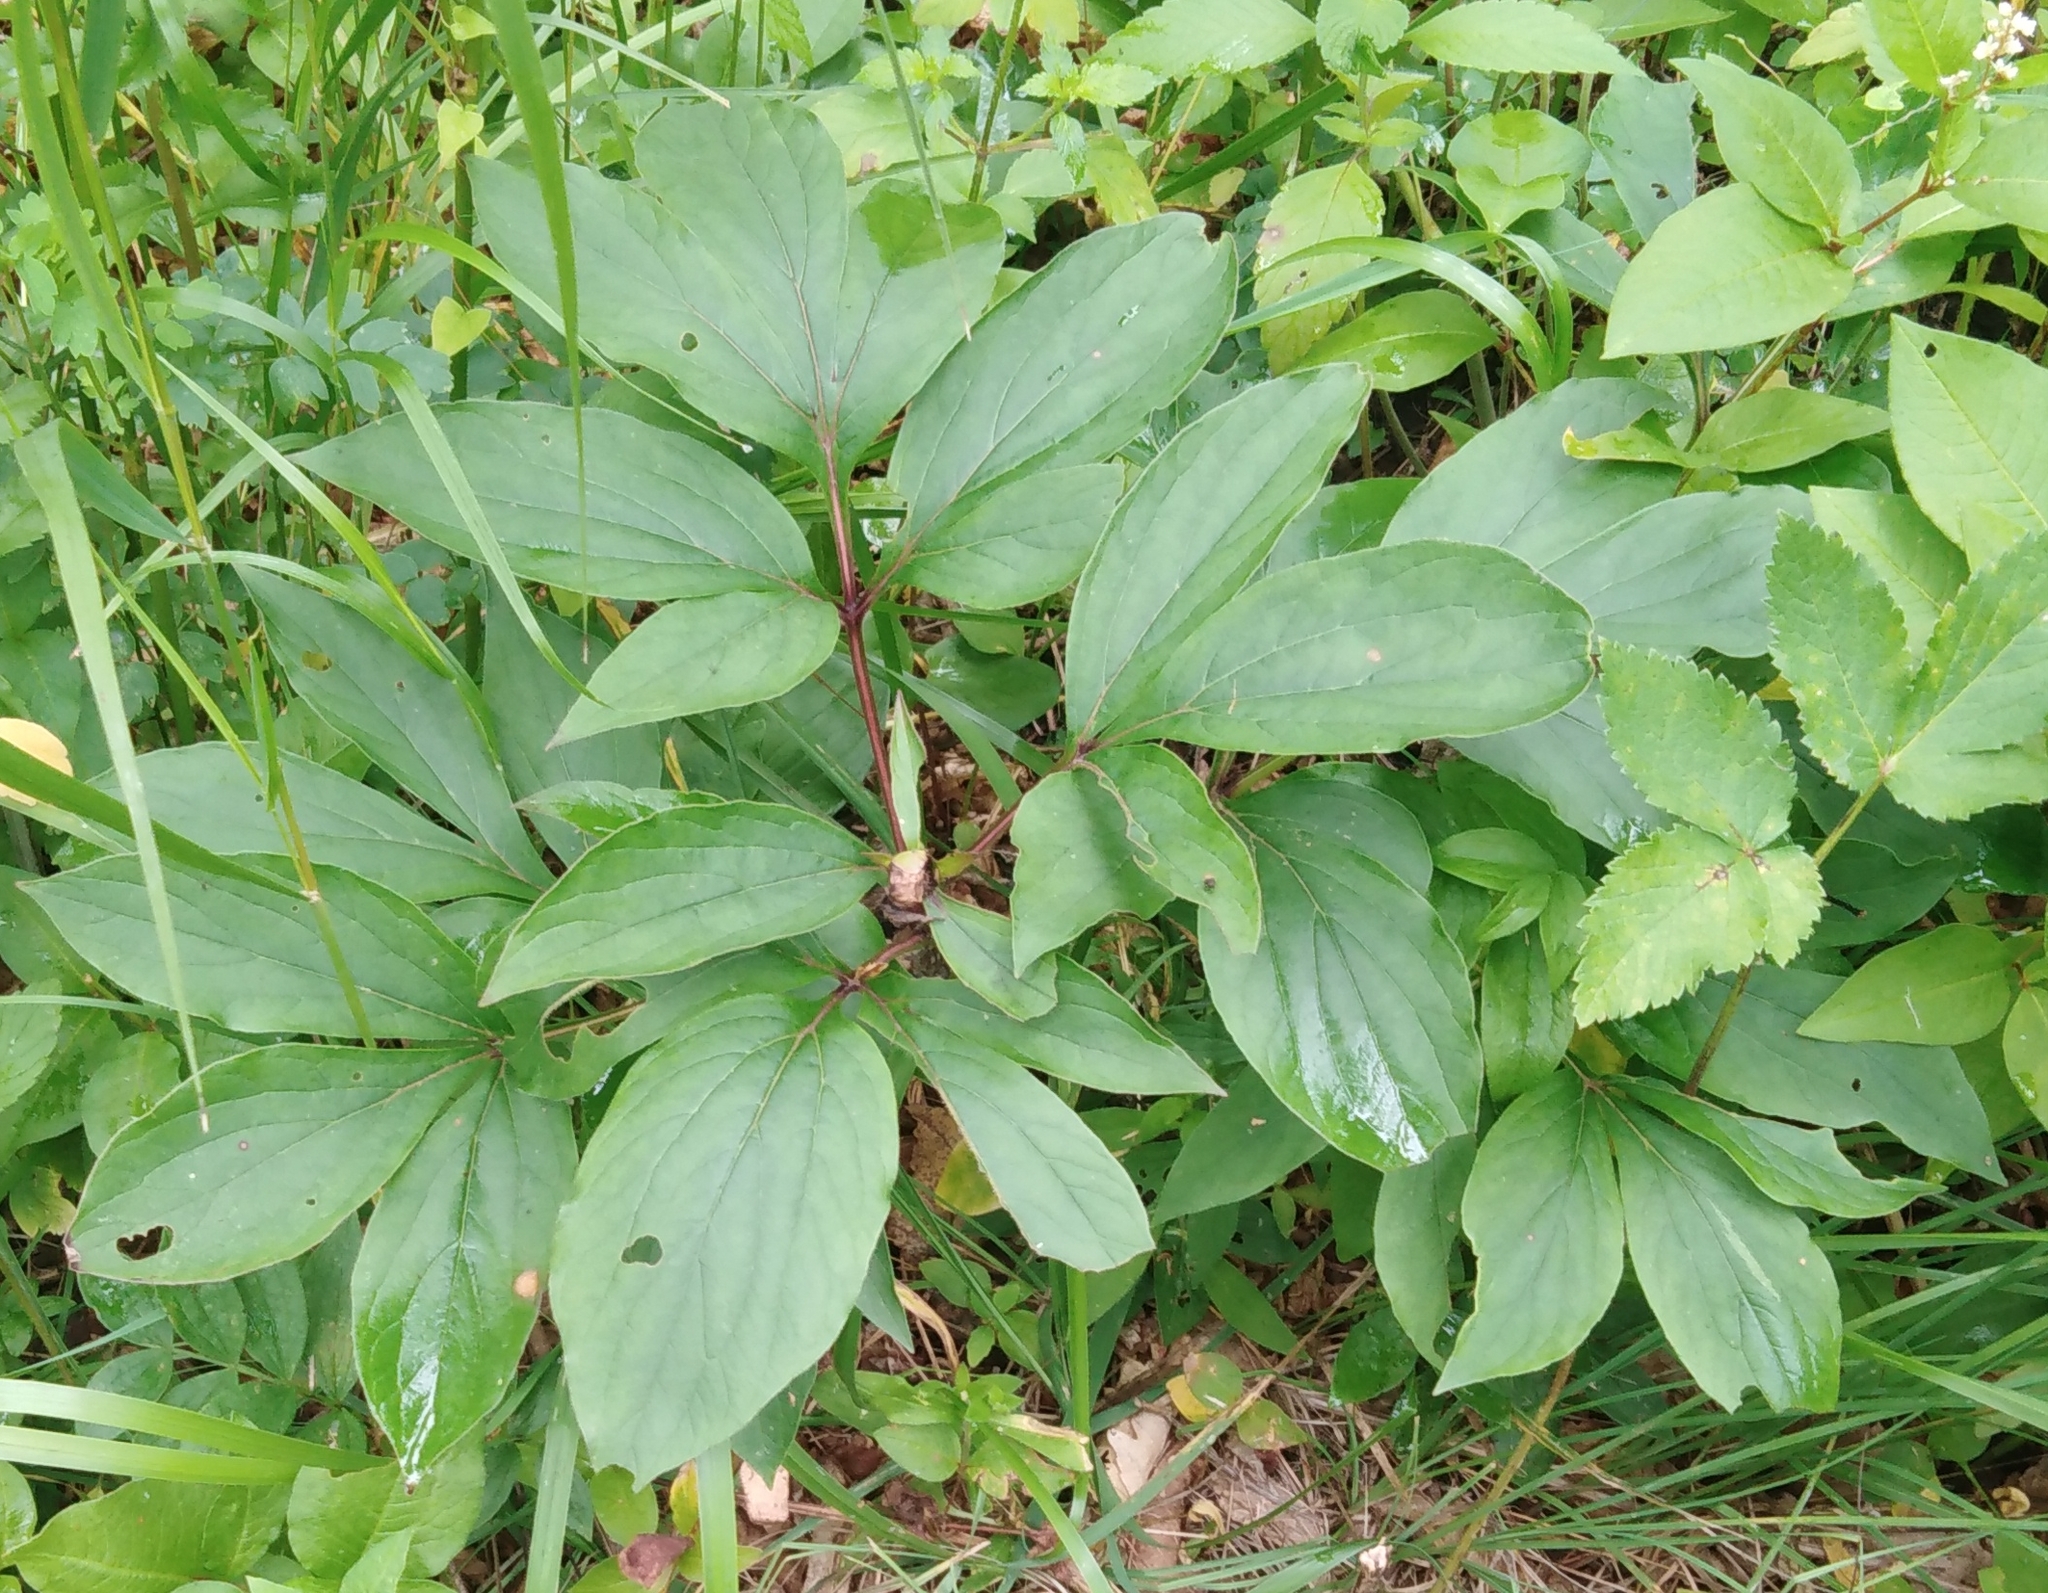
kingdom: Plantae
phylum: Tracheophyta
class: Magnoliopsida
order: Saxifragales
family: Paeoniaceae
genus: Paeonia
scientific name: Paeonia lactiflora
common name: Chinese peony
